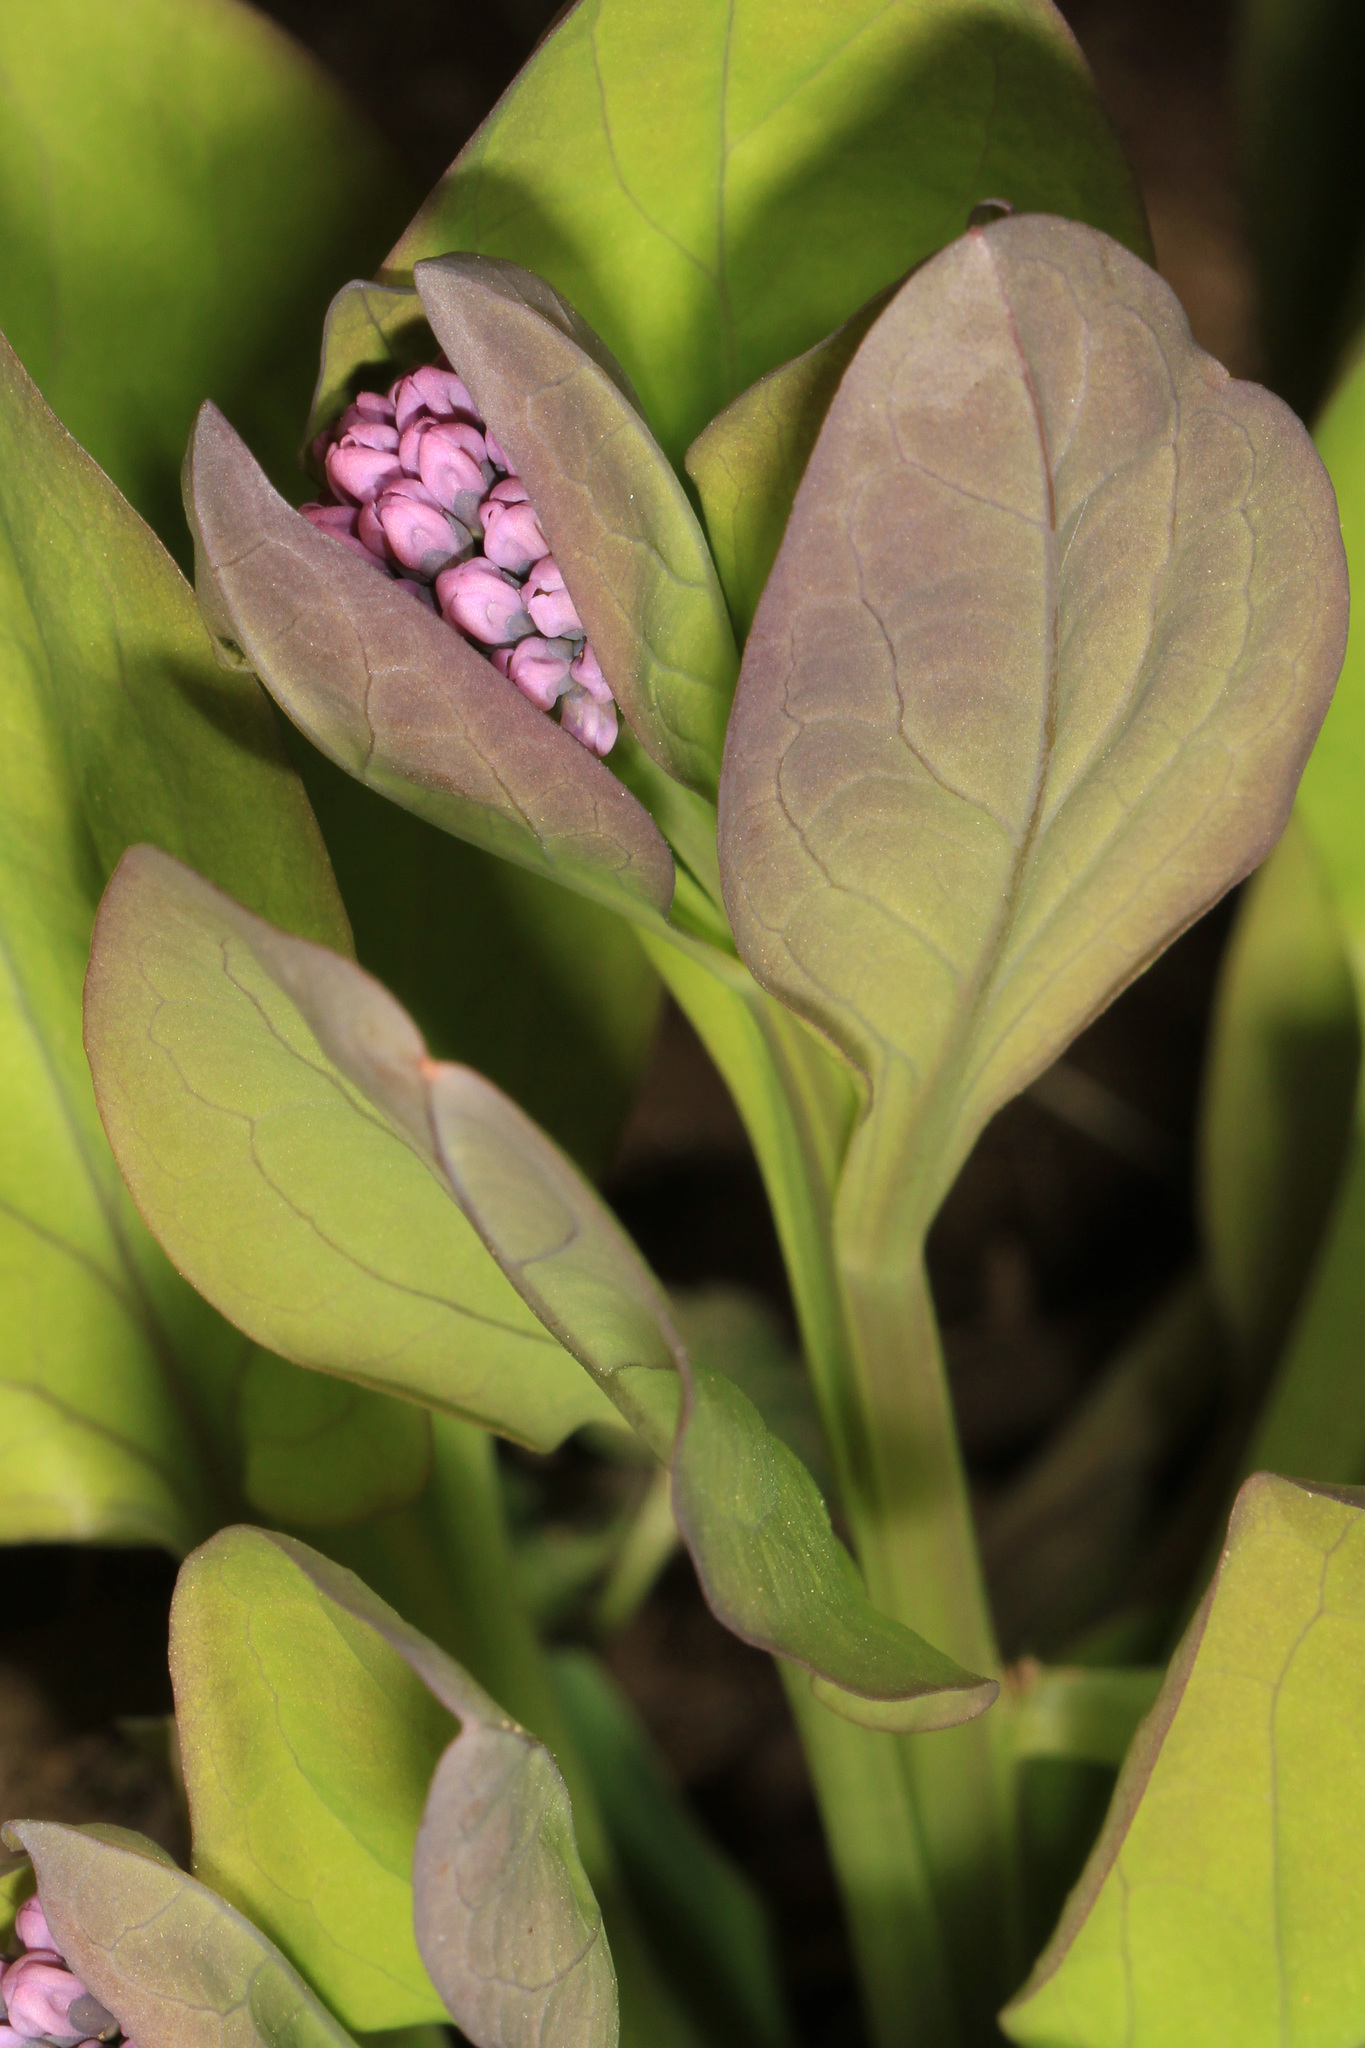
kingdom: Plantae
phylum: Tracheophyta
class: Magnoliopsida
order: Boraginales
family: Boraginaceae
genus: Mertensia
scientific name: Mertensia virginica
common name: Virginia bluebells
